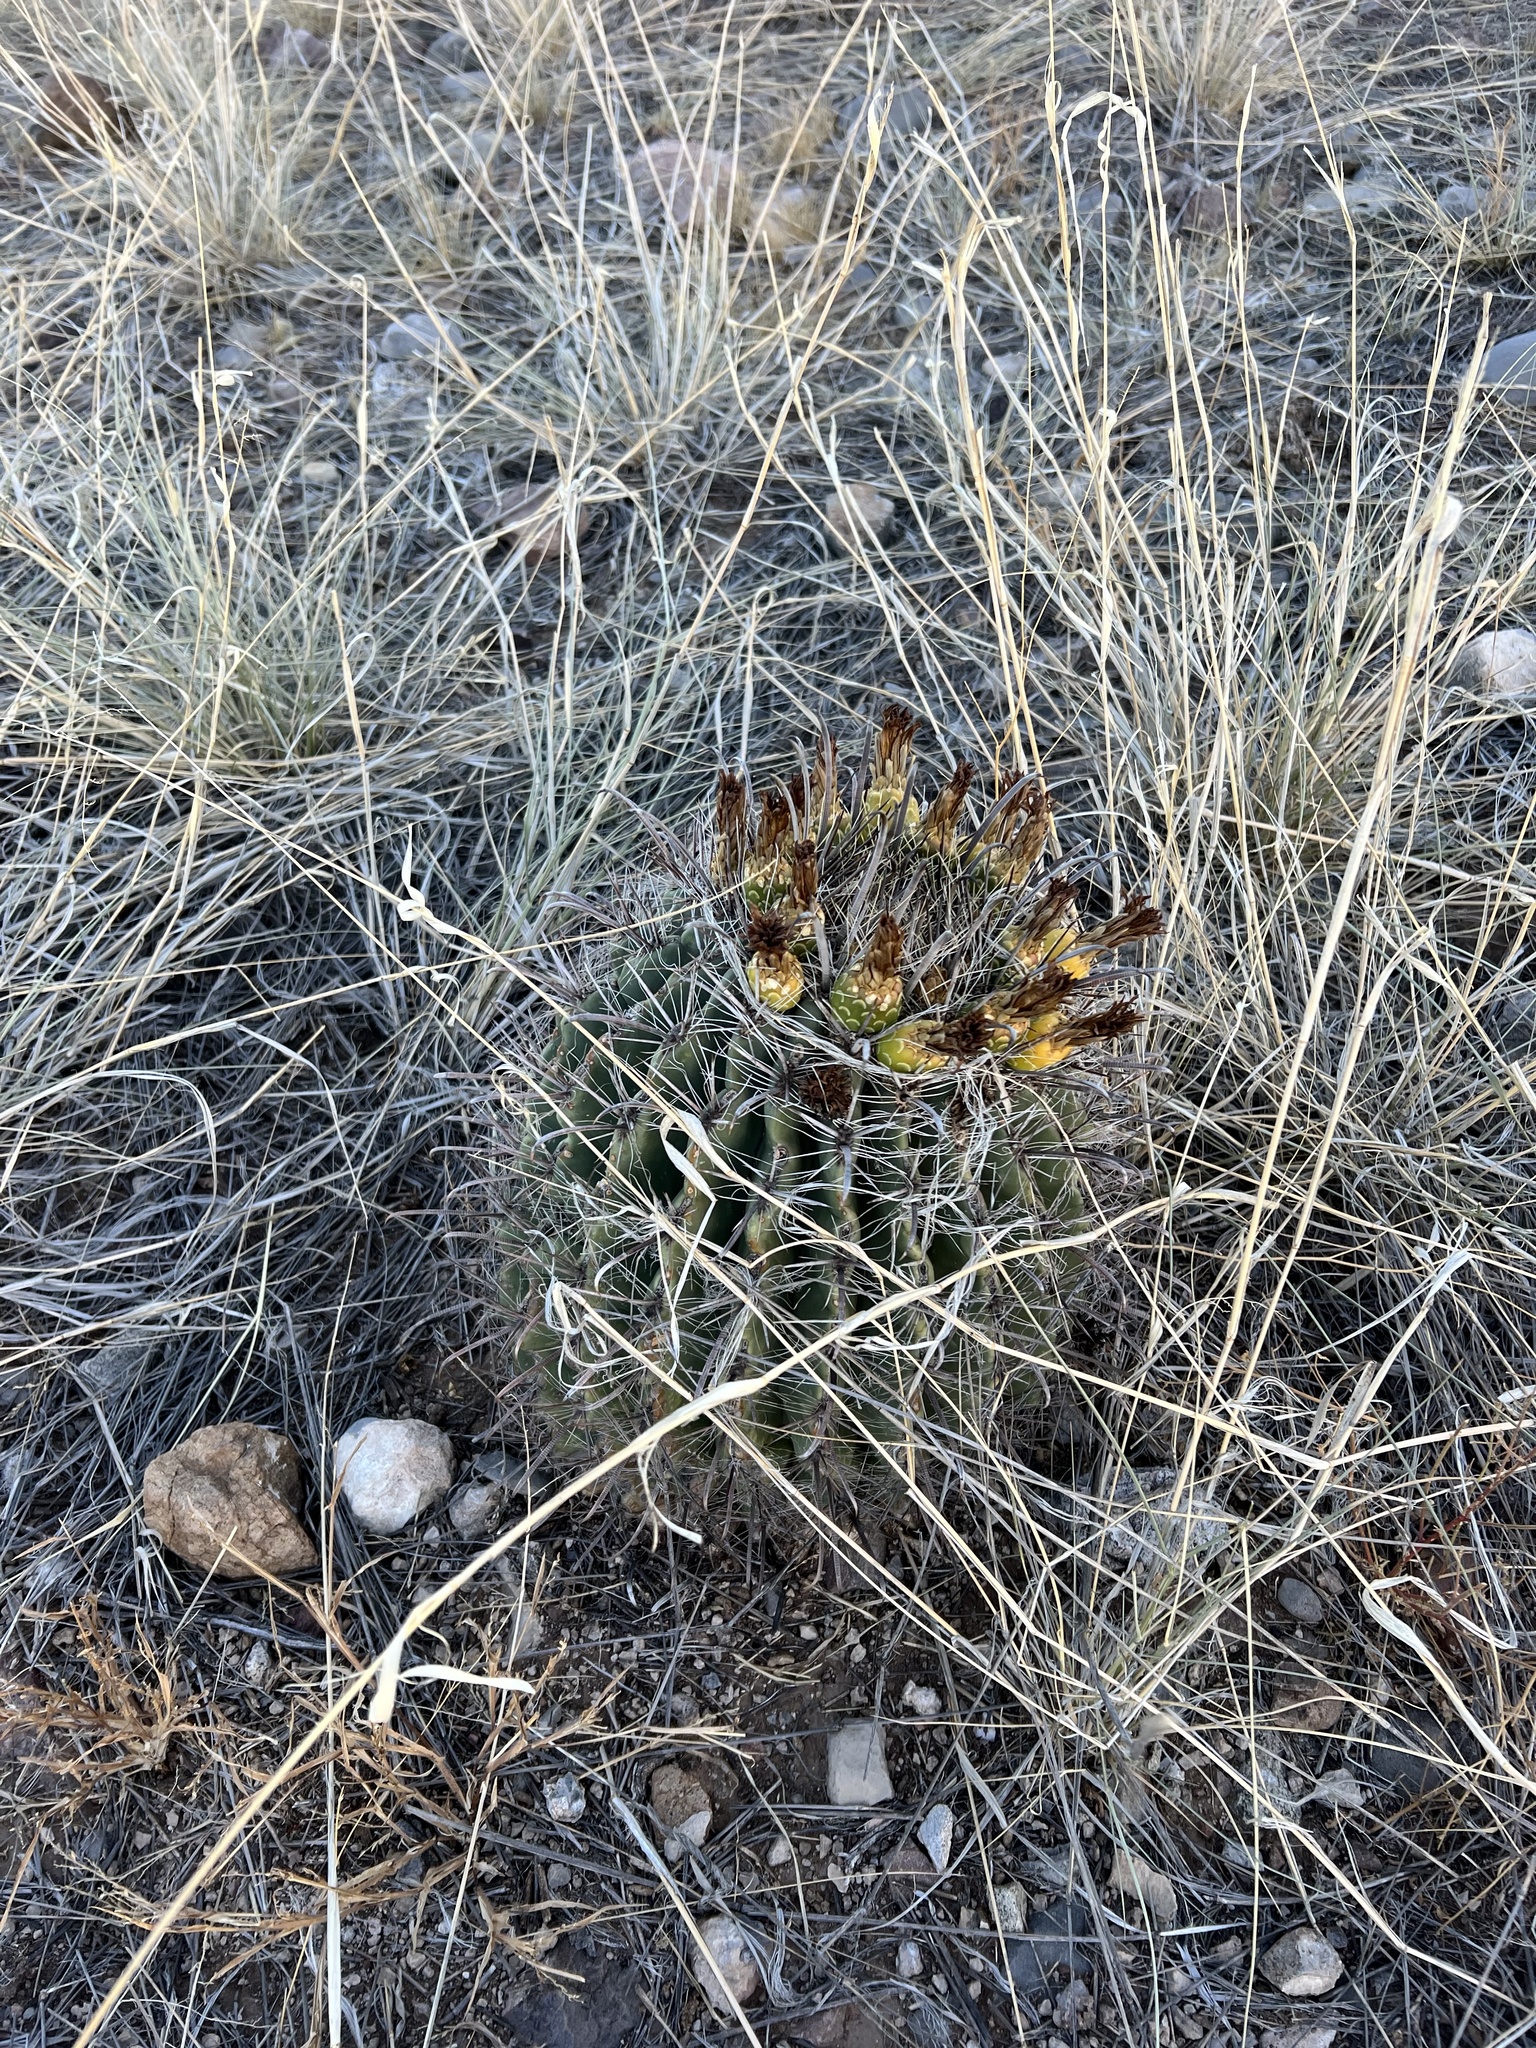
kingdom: Plantae
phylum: Tracheophyta
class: Magnoliopsida
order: Caryophyllales
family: Cactaceae
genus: Ferocactus
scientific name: Ferocactus wislizeni
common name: Candy barrel cactus
